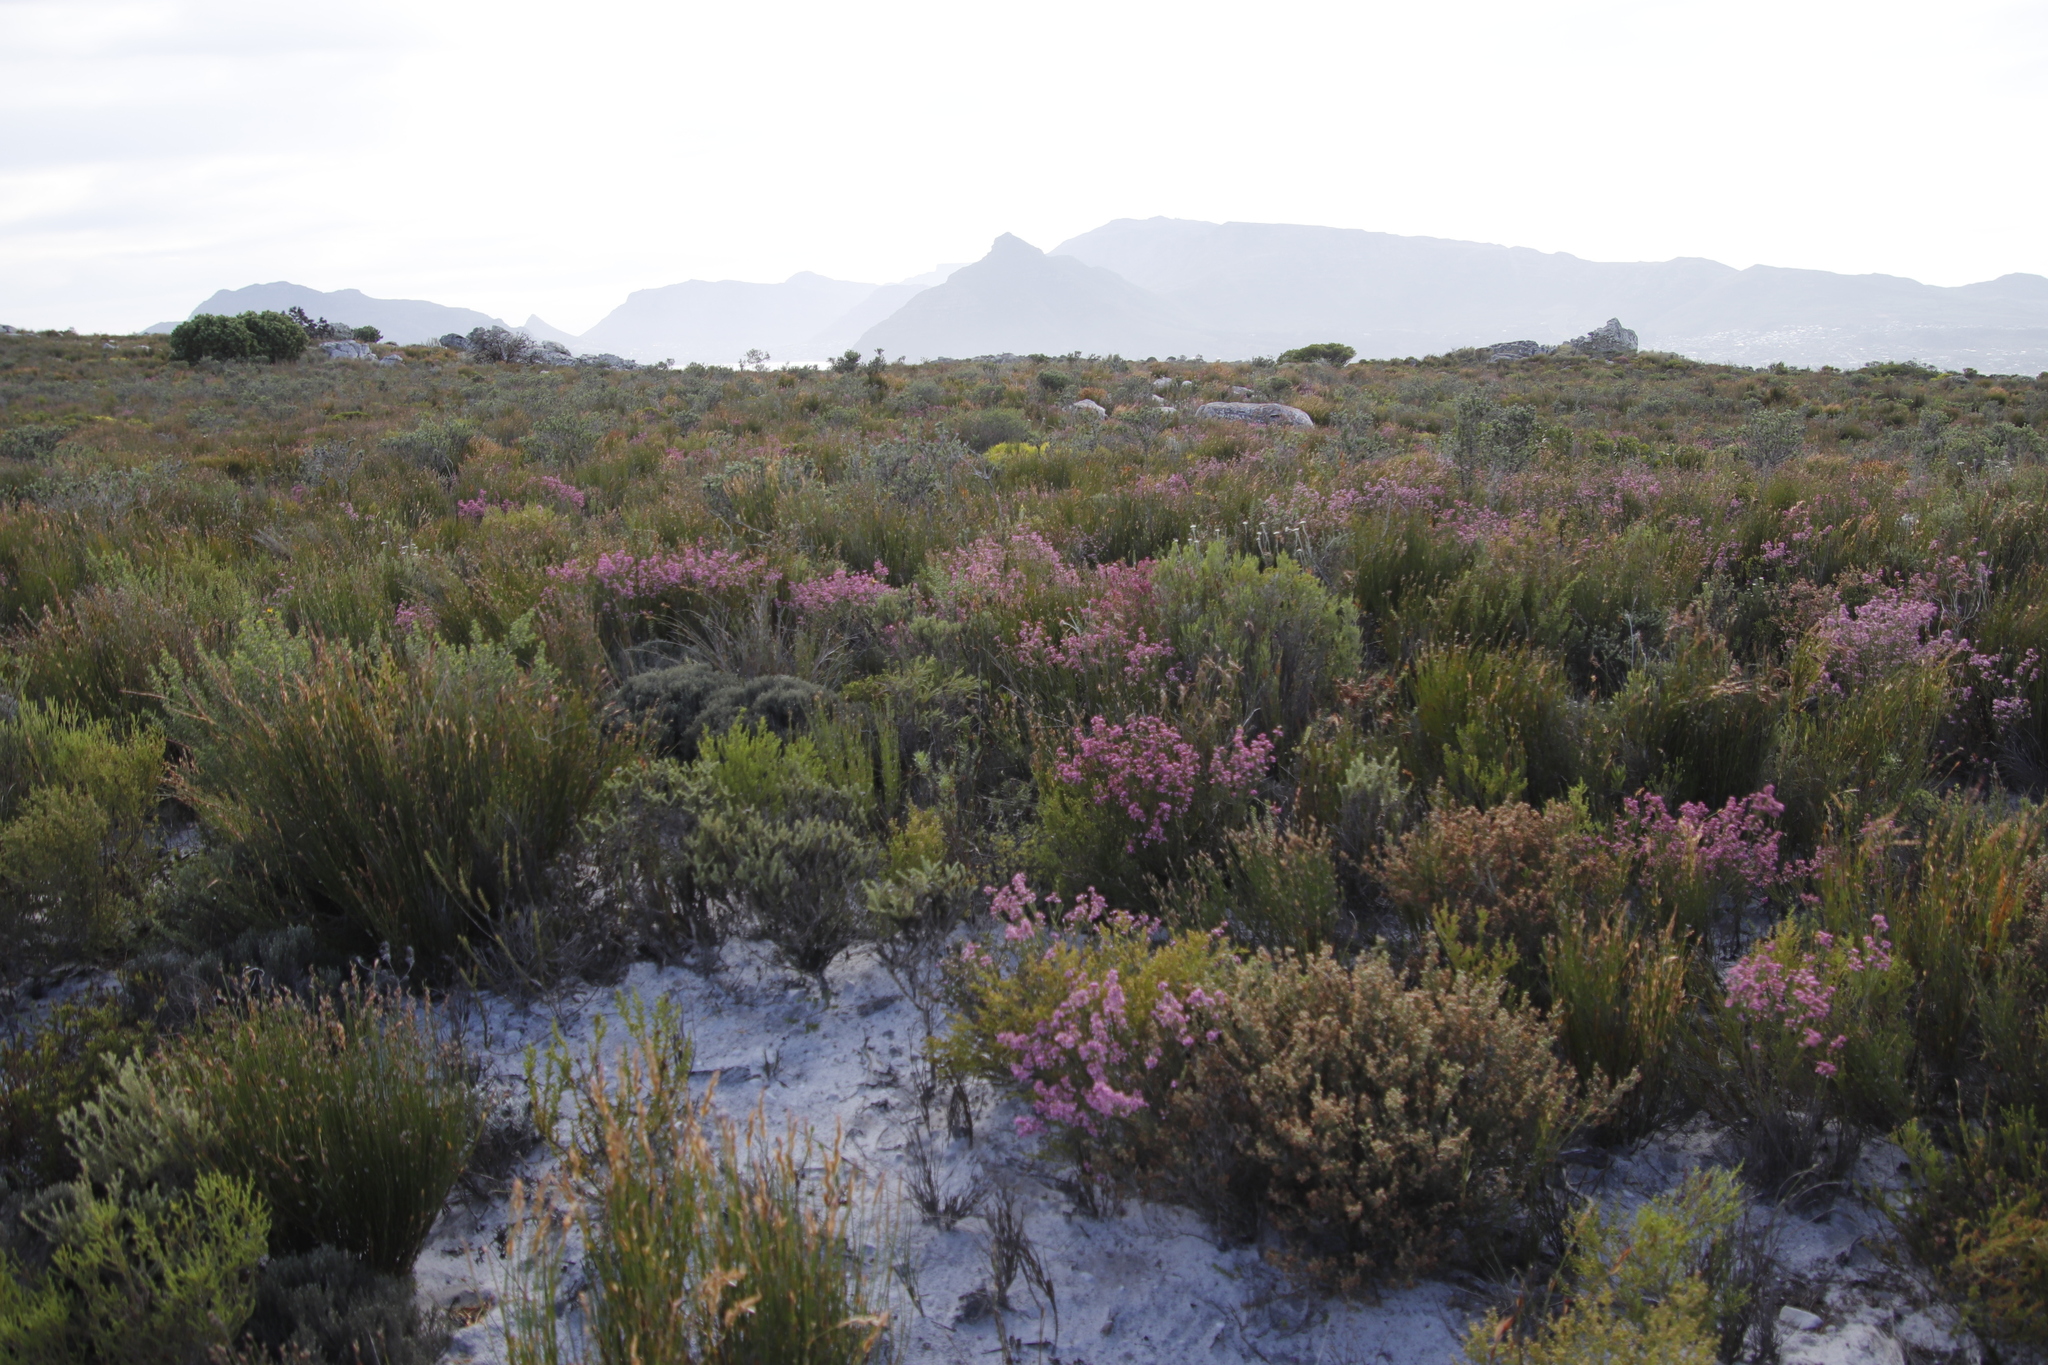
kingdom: Plantae
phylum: Tracheophyta
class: Magnoliopsida
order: Ericales
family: Ericaceae
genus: Erica
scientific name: Erica corifolia
